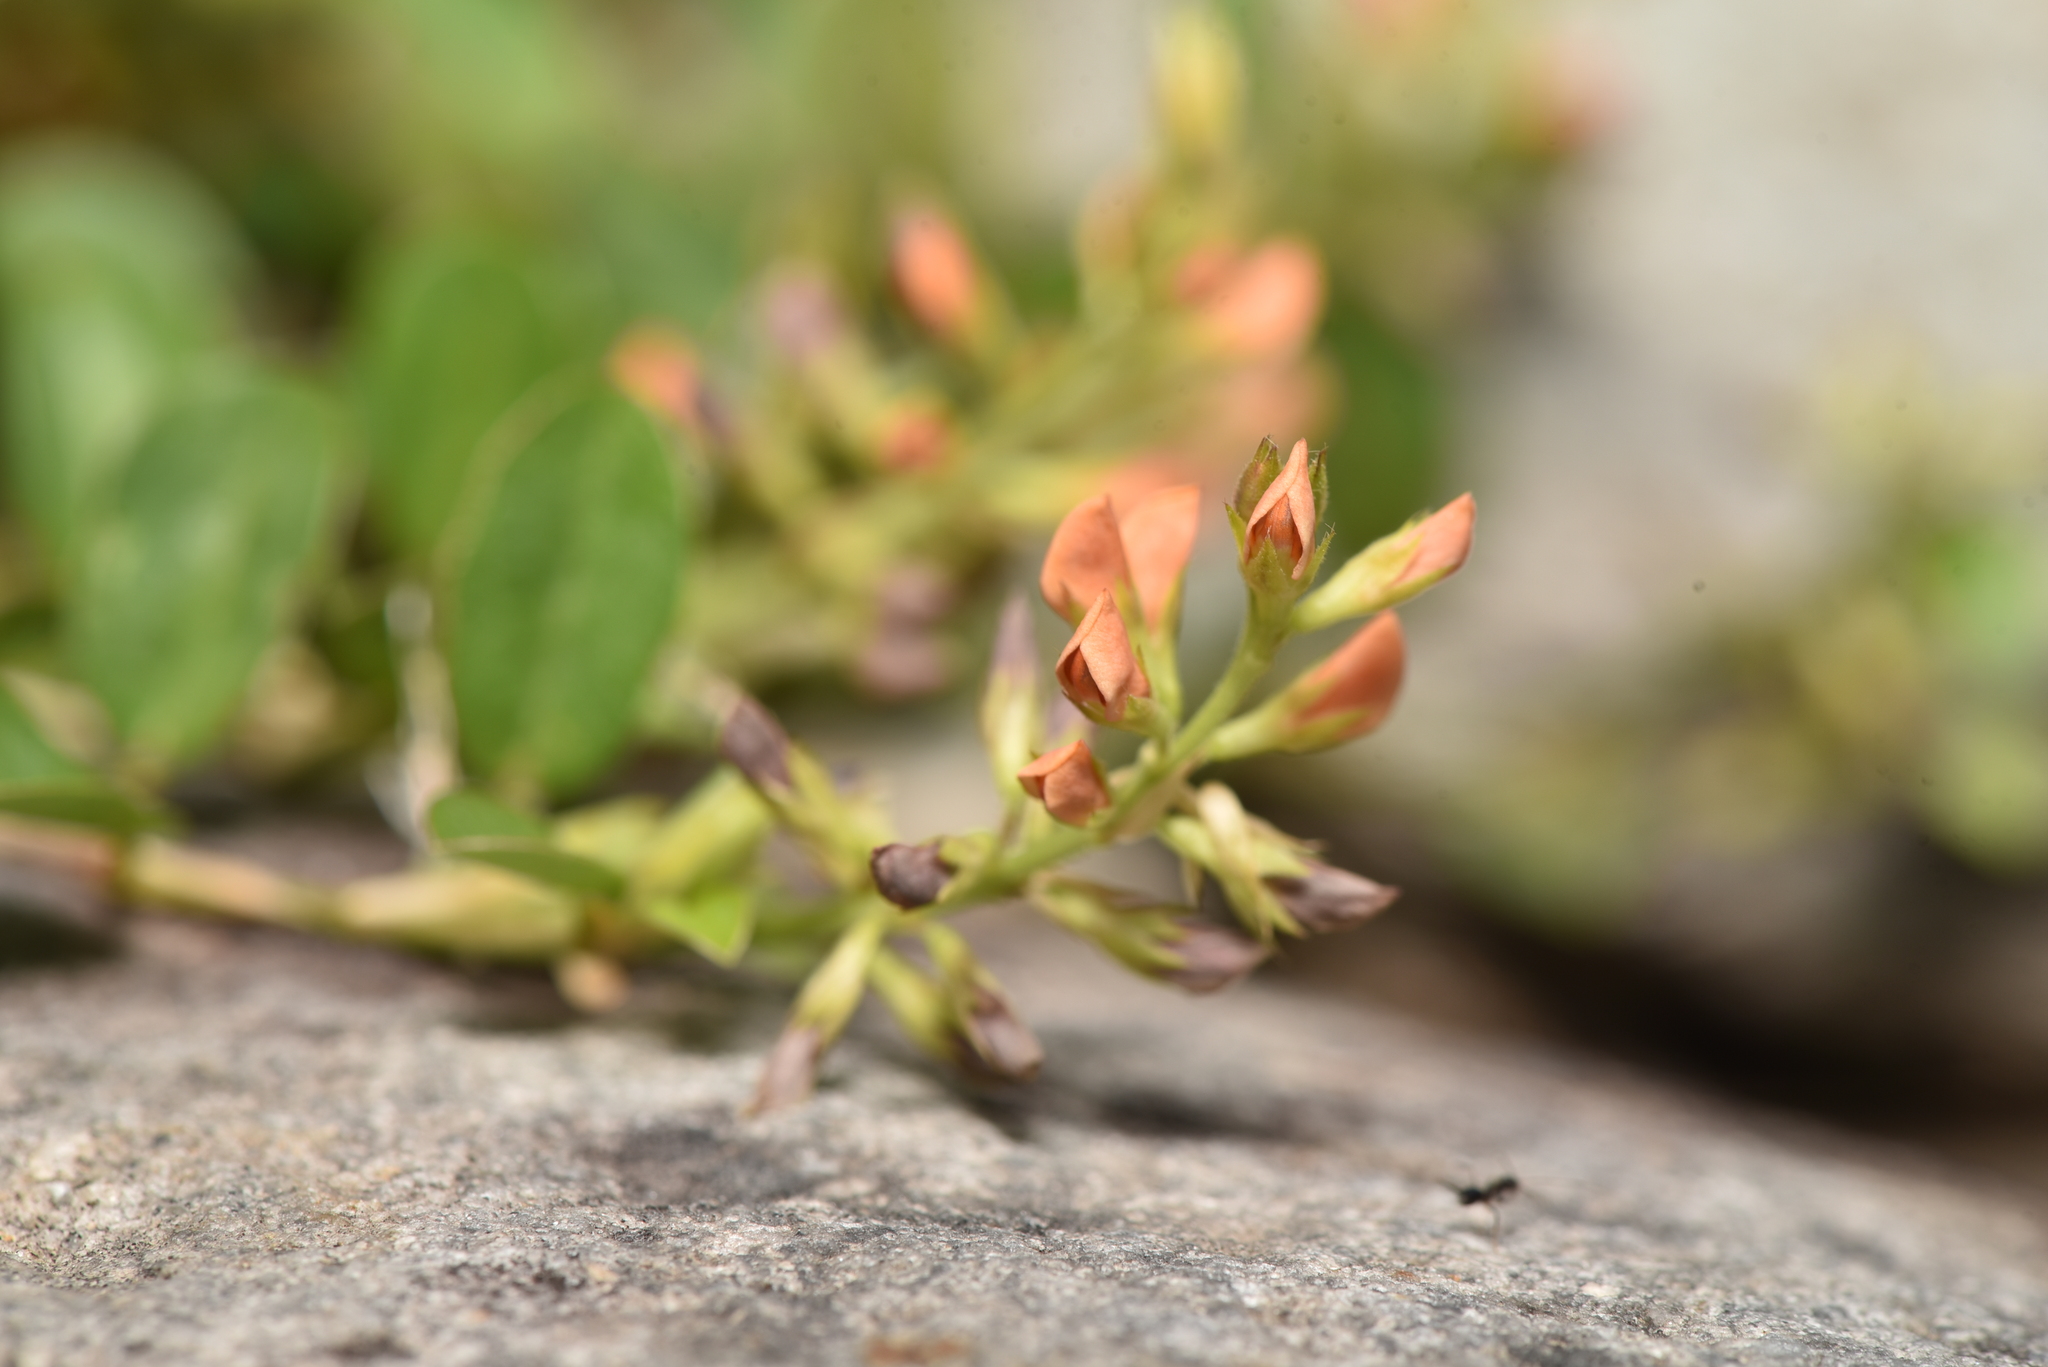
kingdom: Plantae
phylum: Tracheophyta
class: Magnoliopsida
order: Fabales
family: Fabaceae
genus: Alysicarpus
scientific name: Alysicarpus vaginalis
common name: White moneywort
